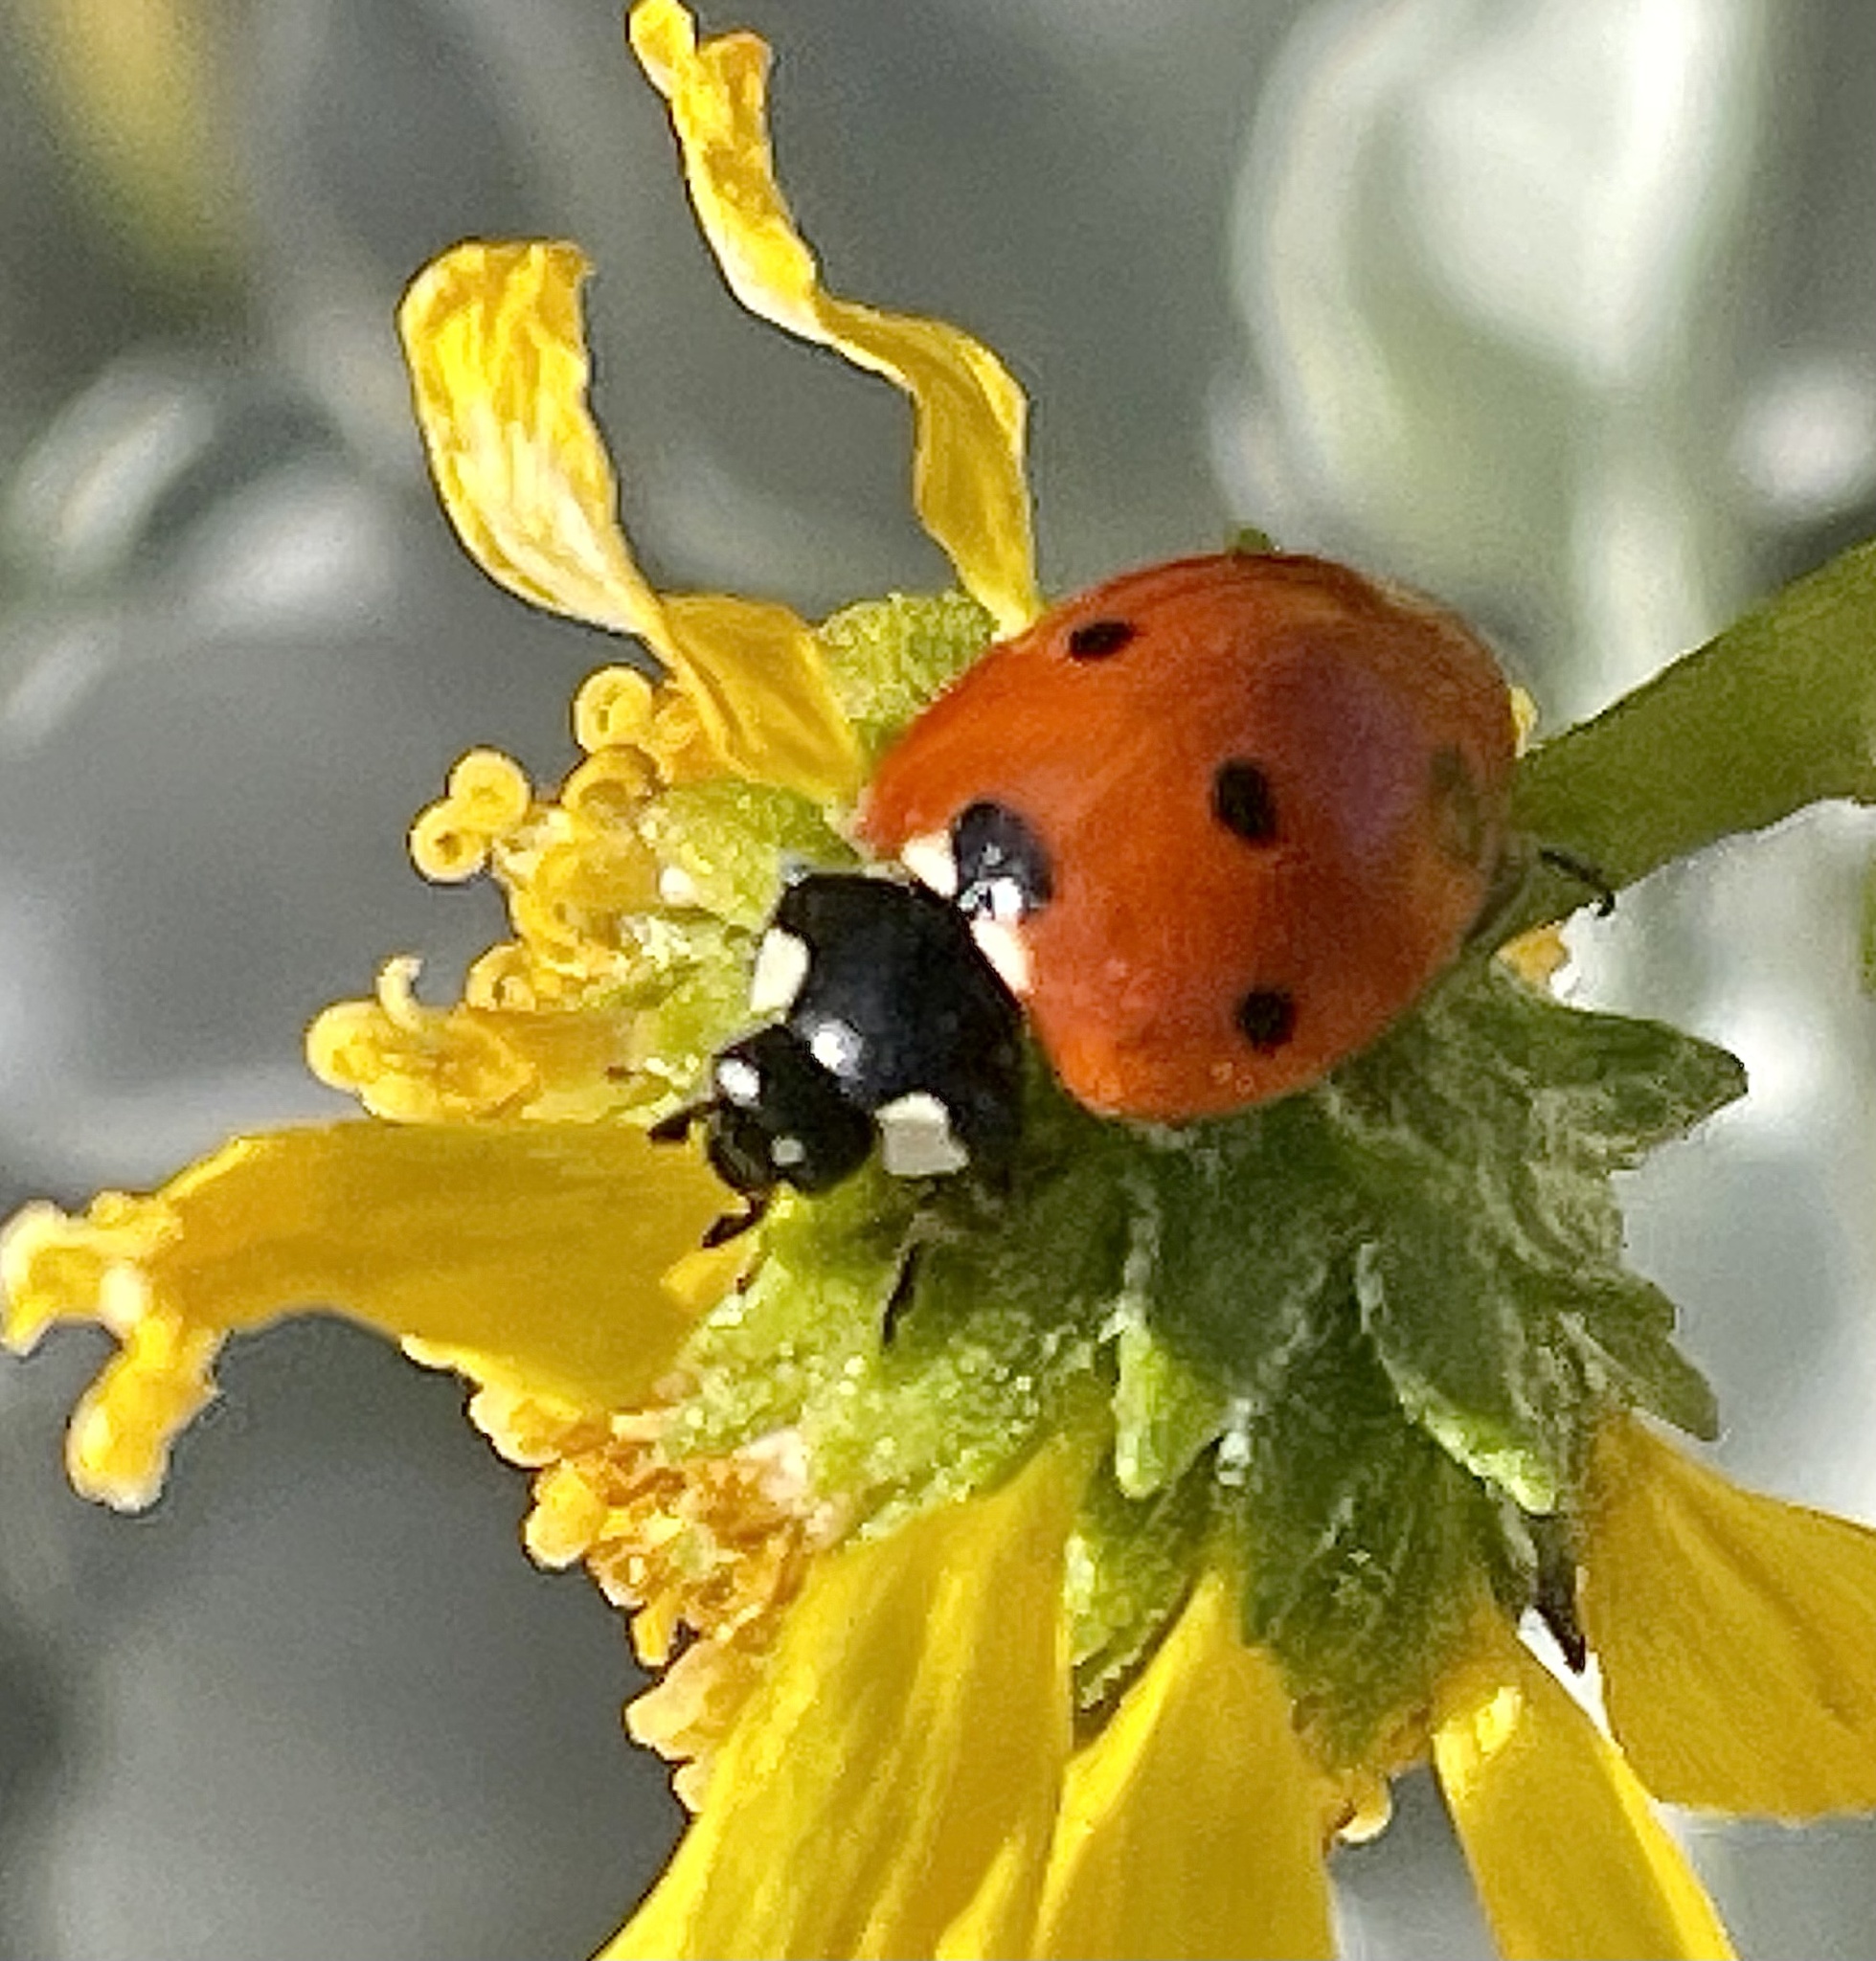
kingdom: Animalia
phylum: Arthropoda
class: Insecta
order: Coleoptera
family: Coccinellidae
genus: Coccinella
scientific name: Coccinella septempunctata
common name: Sevenspotted lady beetle
